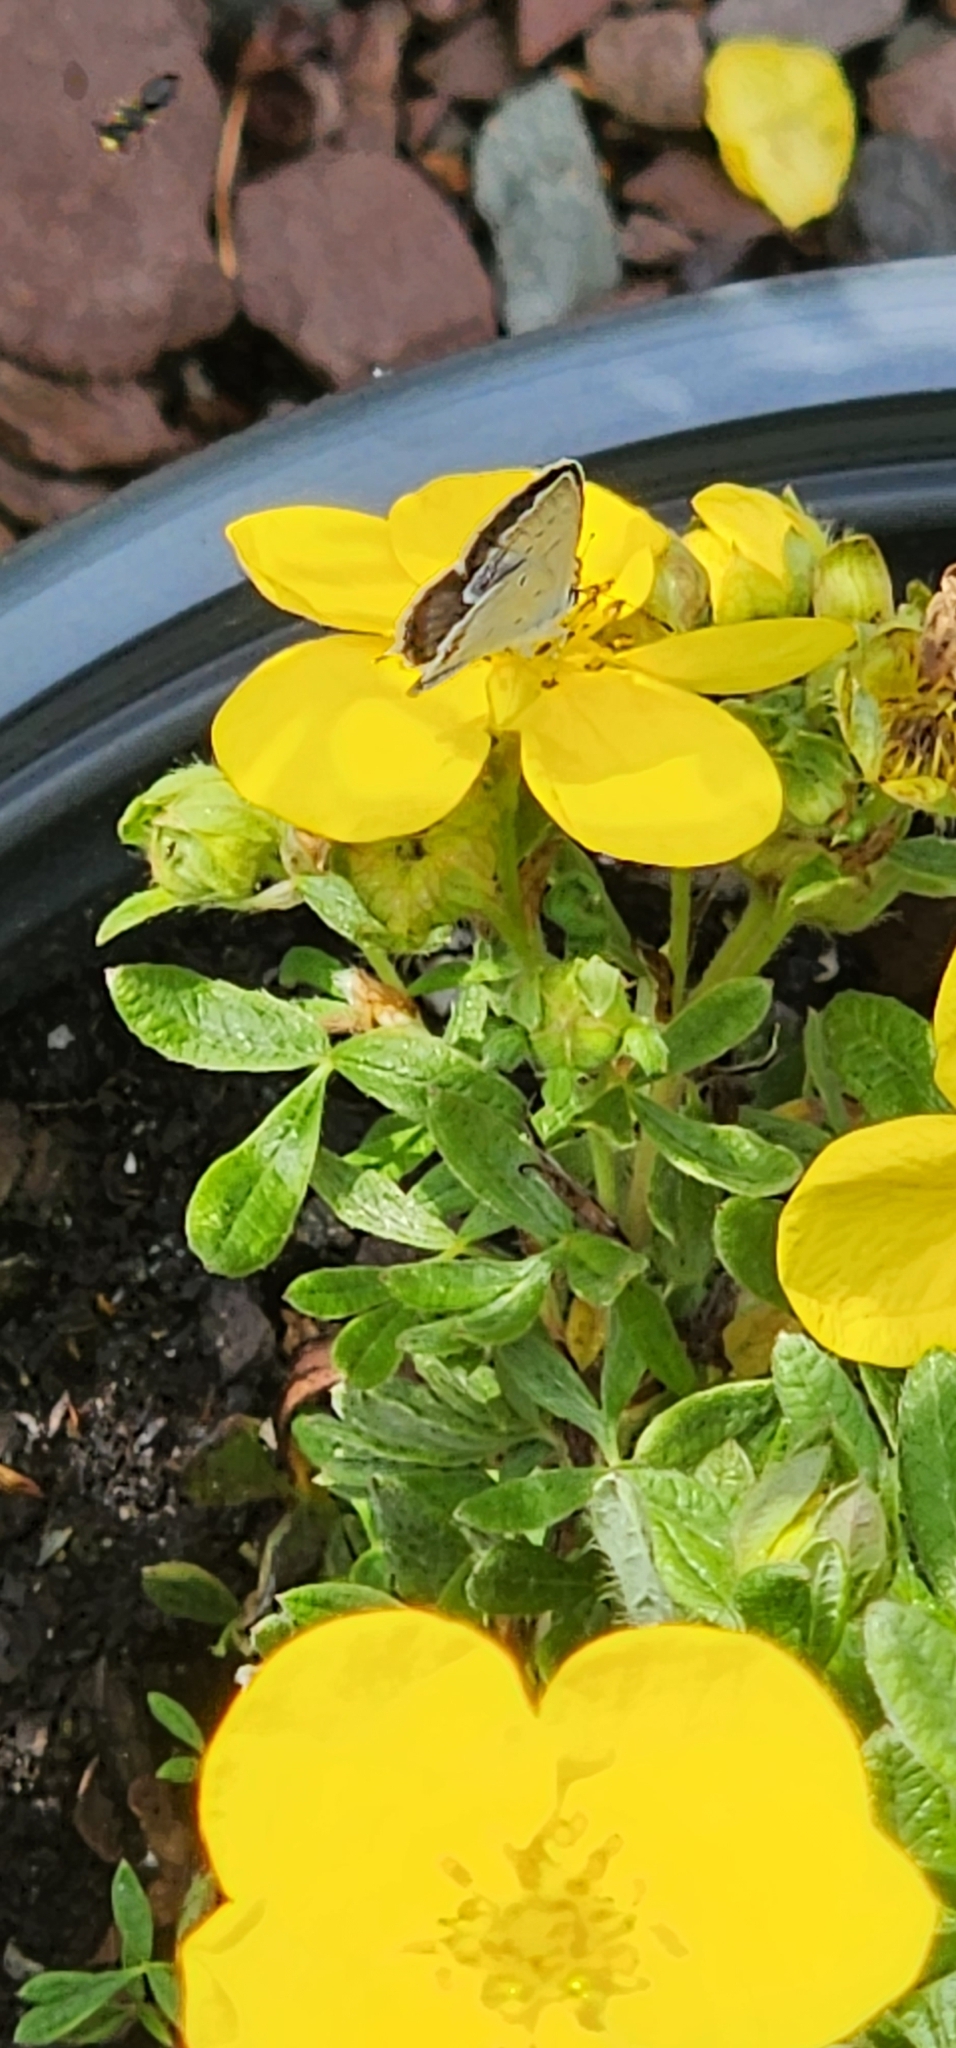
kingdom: Animalia
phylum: Arthropoda
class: Insecta
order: Lepidoptera
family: Lycaenidae
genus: Elkalyce
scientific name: Elkalyce comyntas
